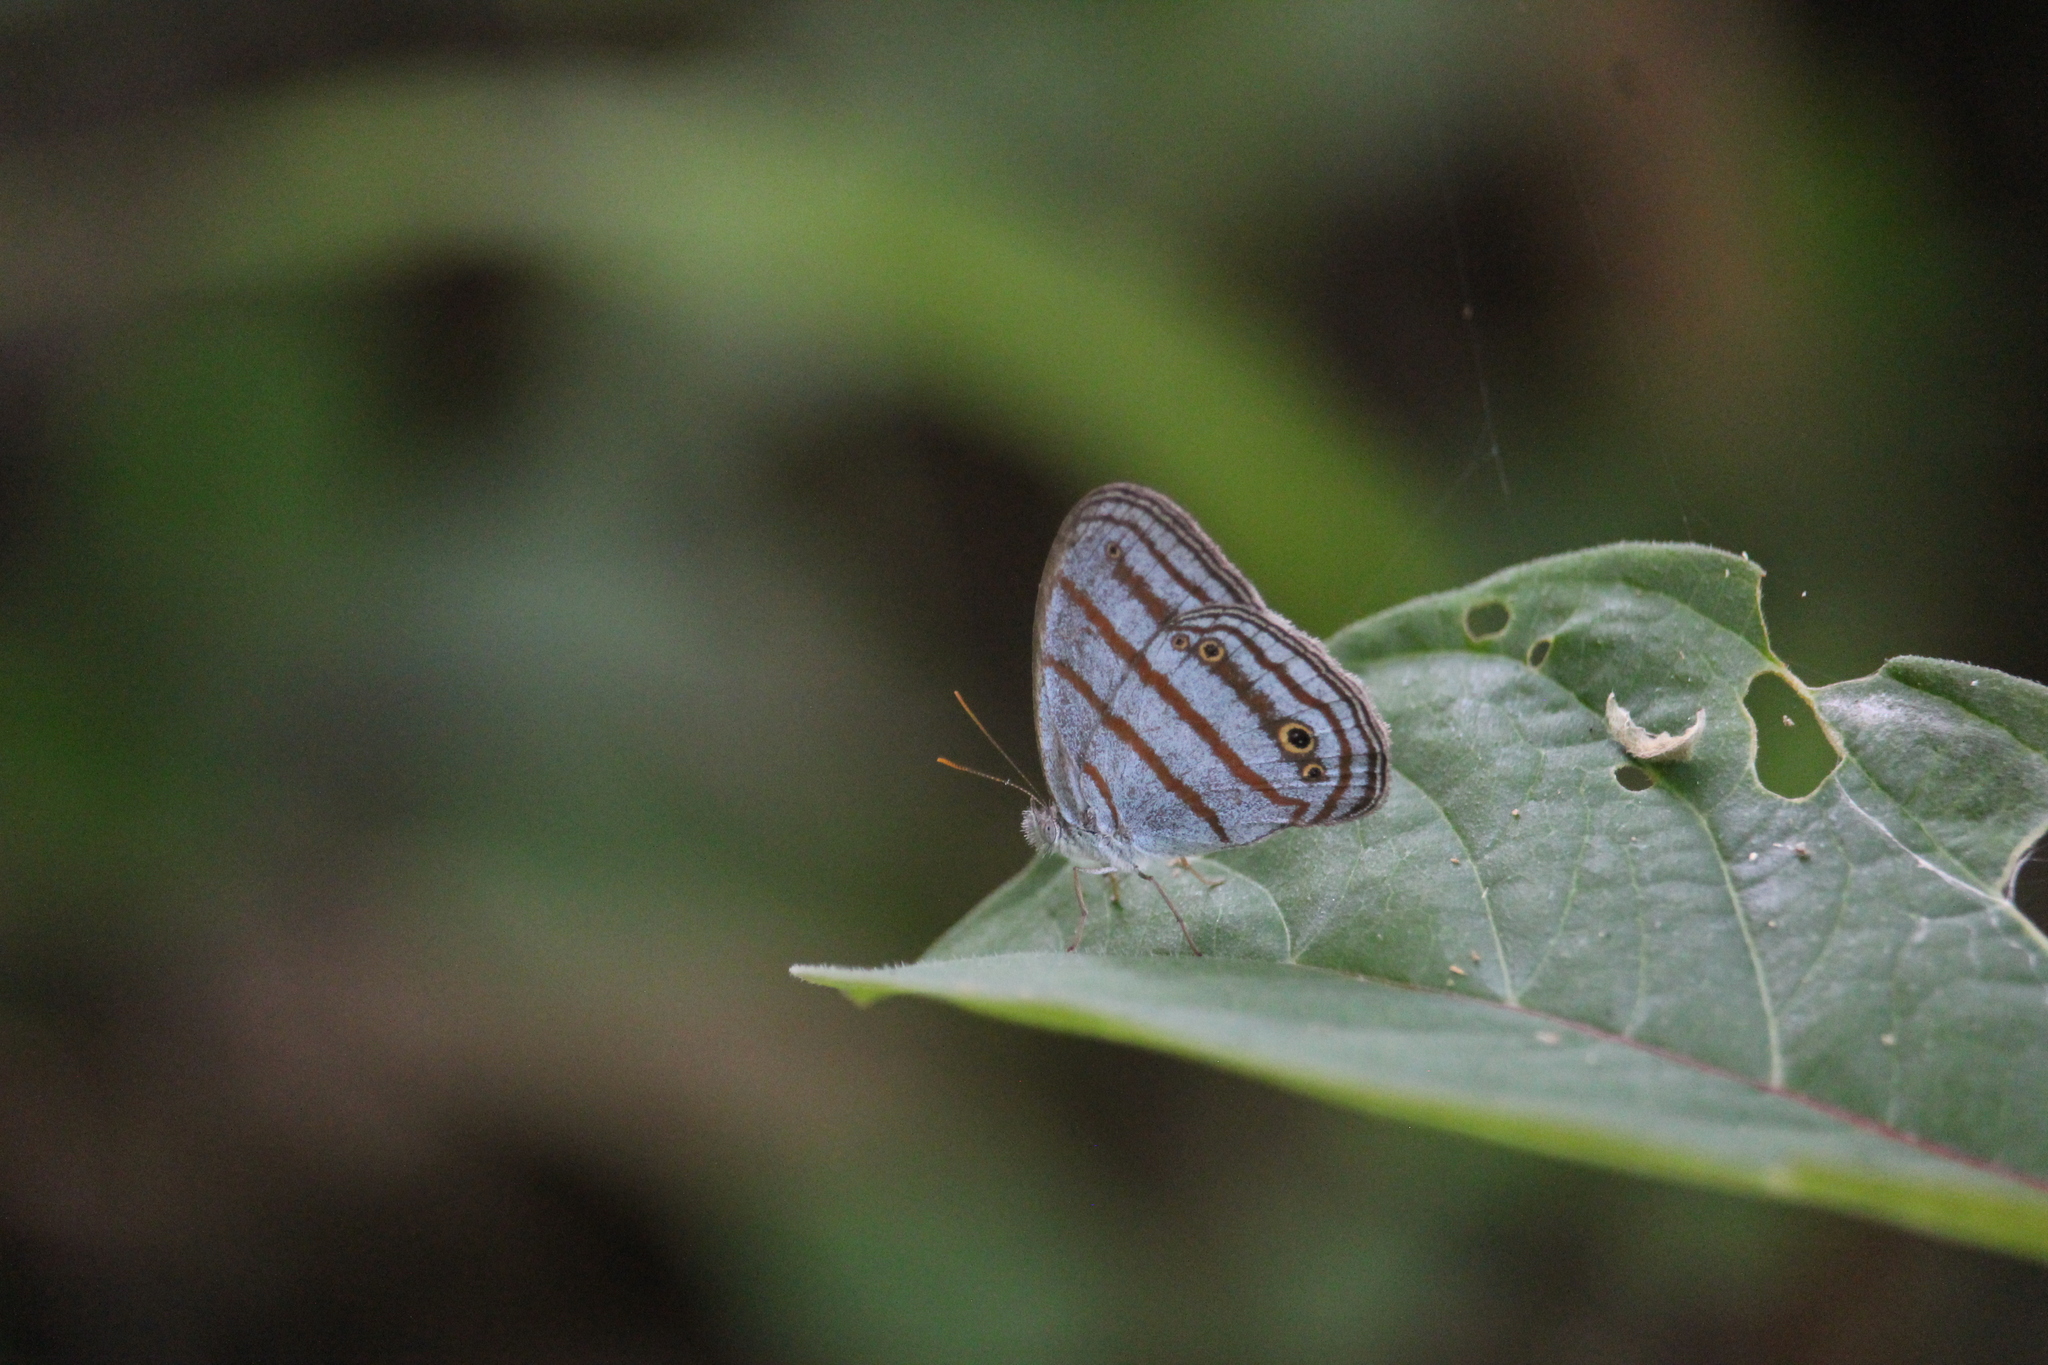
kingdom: Animalia
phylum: Arthropoda
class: Insecta
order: Lepidoptera
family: Nymphalidae
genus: Cepheuptychia
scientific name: Cepheuptychia glaucina
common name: Dirty-blue satyr
